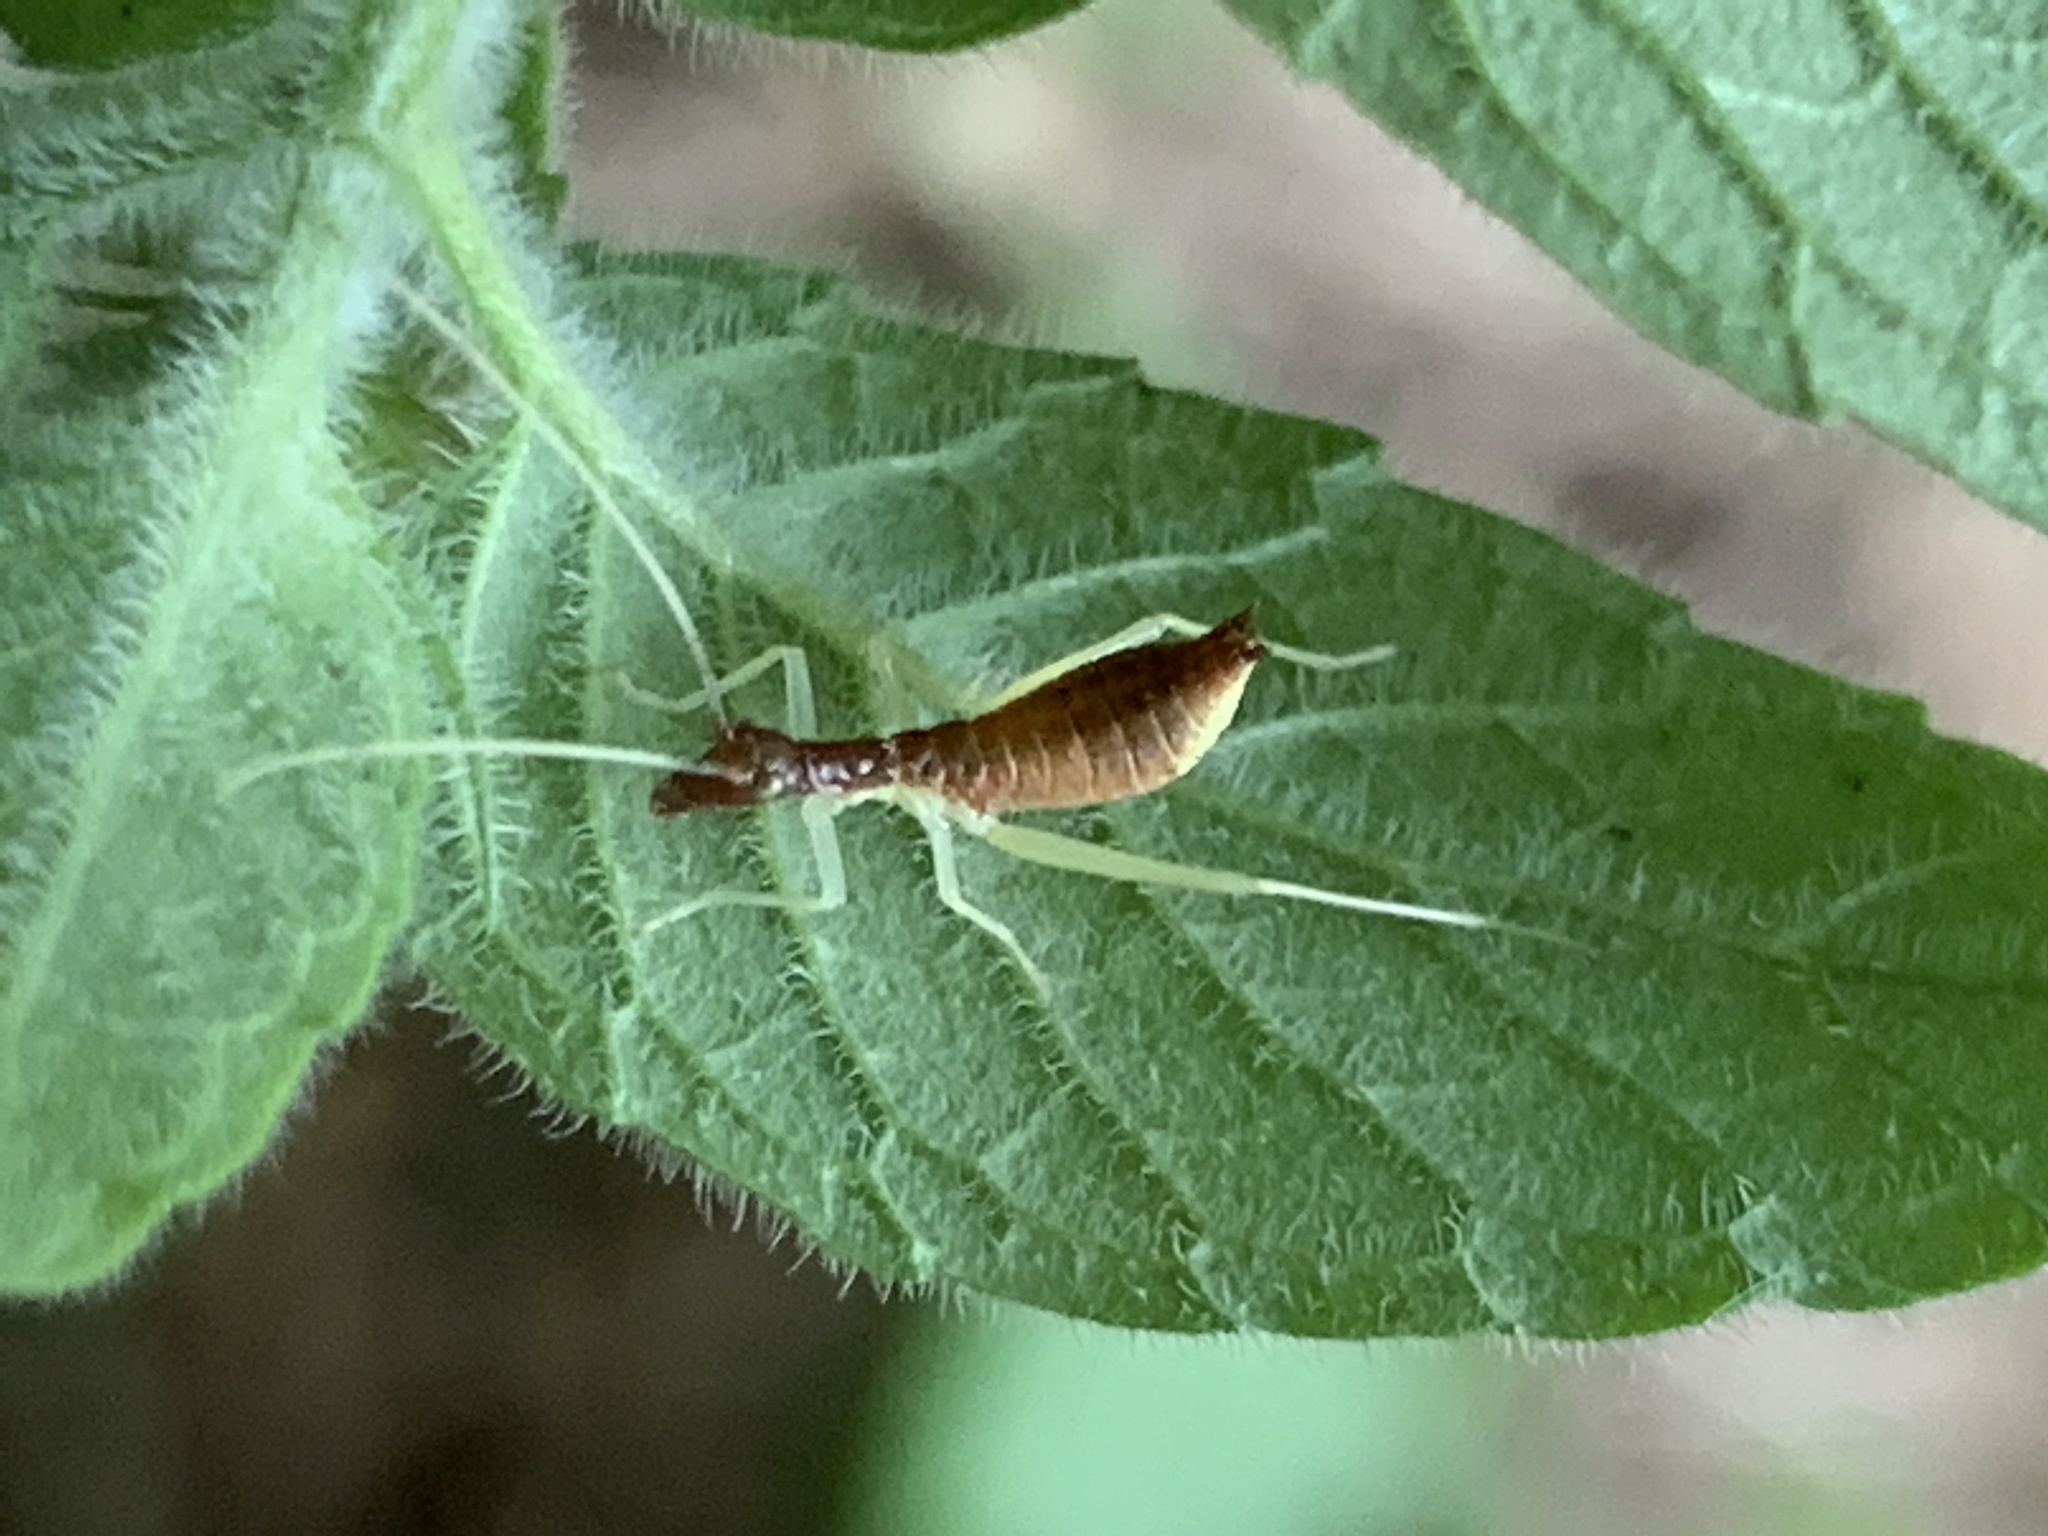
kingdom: Animalia
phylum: Arthropoda
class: Insecta
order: Orthoptera
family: Gryllidae
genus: Neoxabea
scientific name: Neoxabea bipunctata
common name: Two-spotted tree cricket
